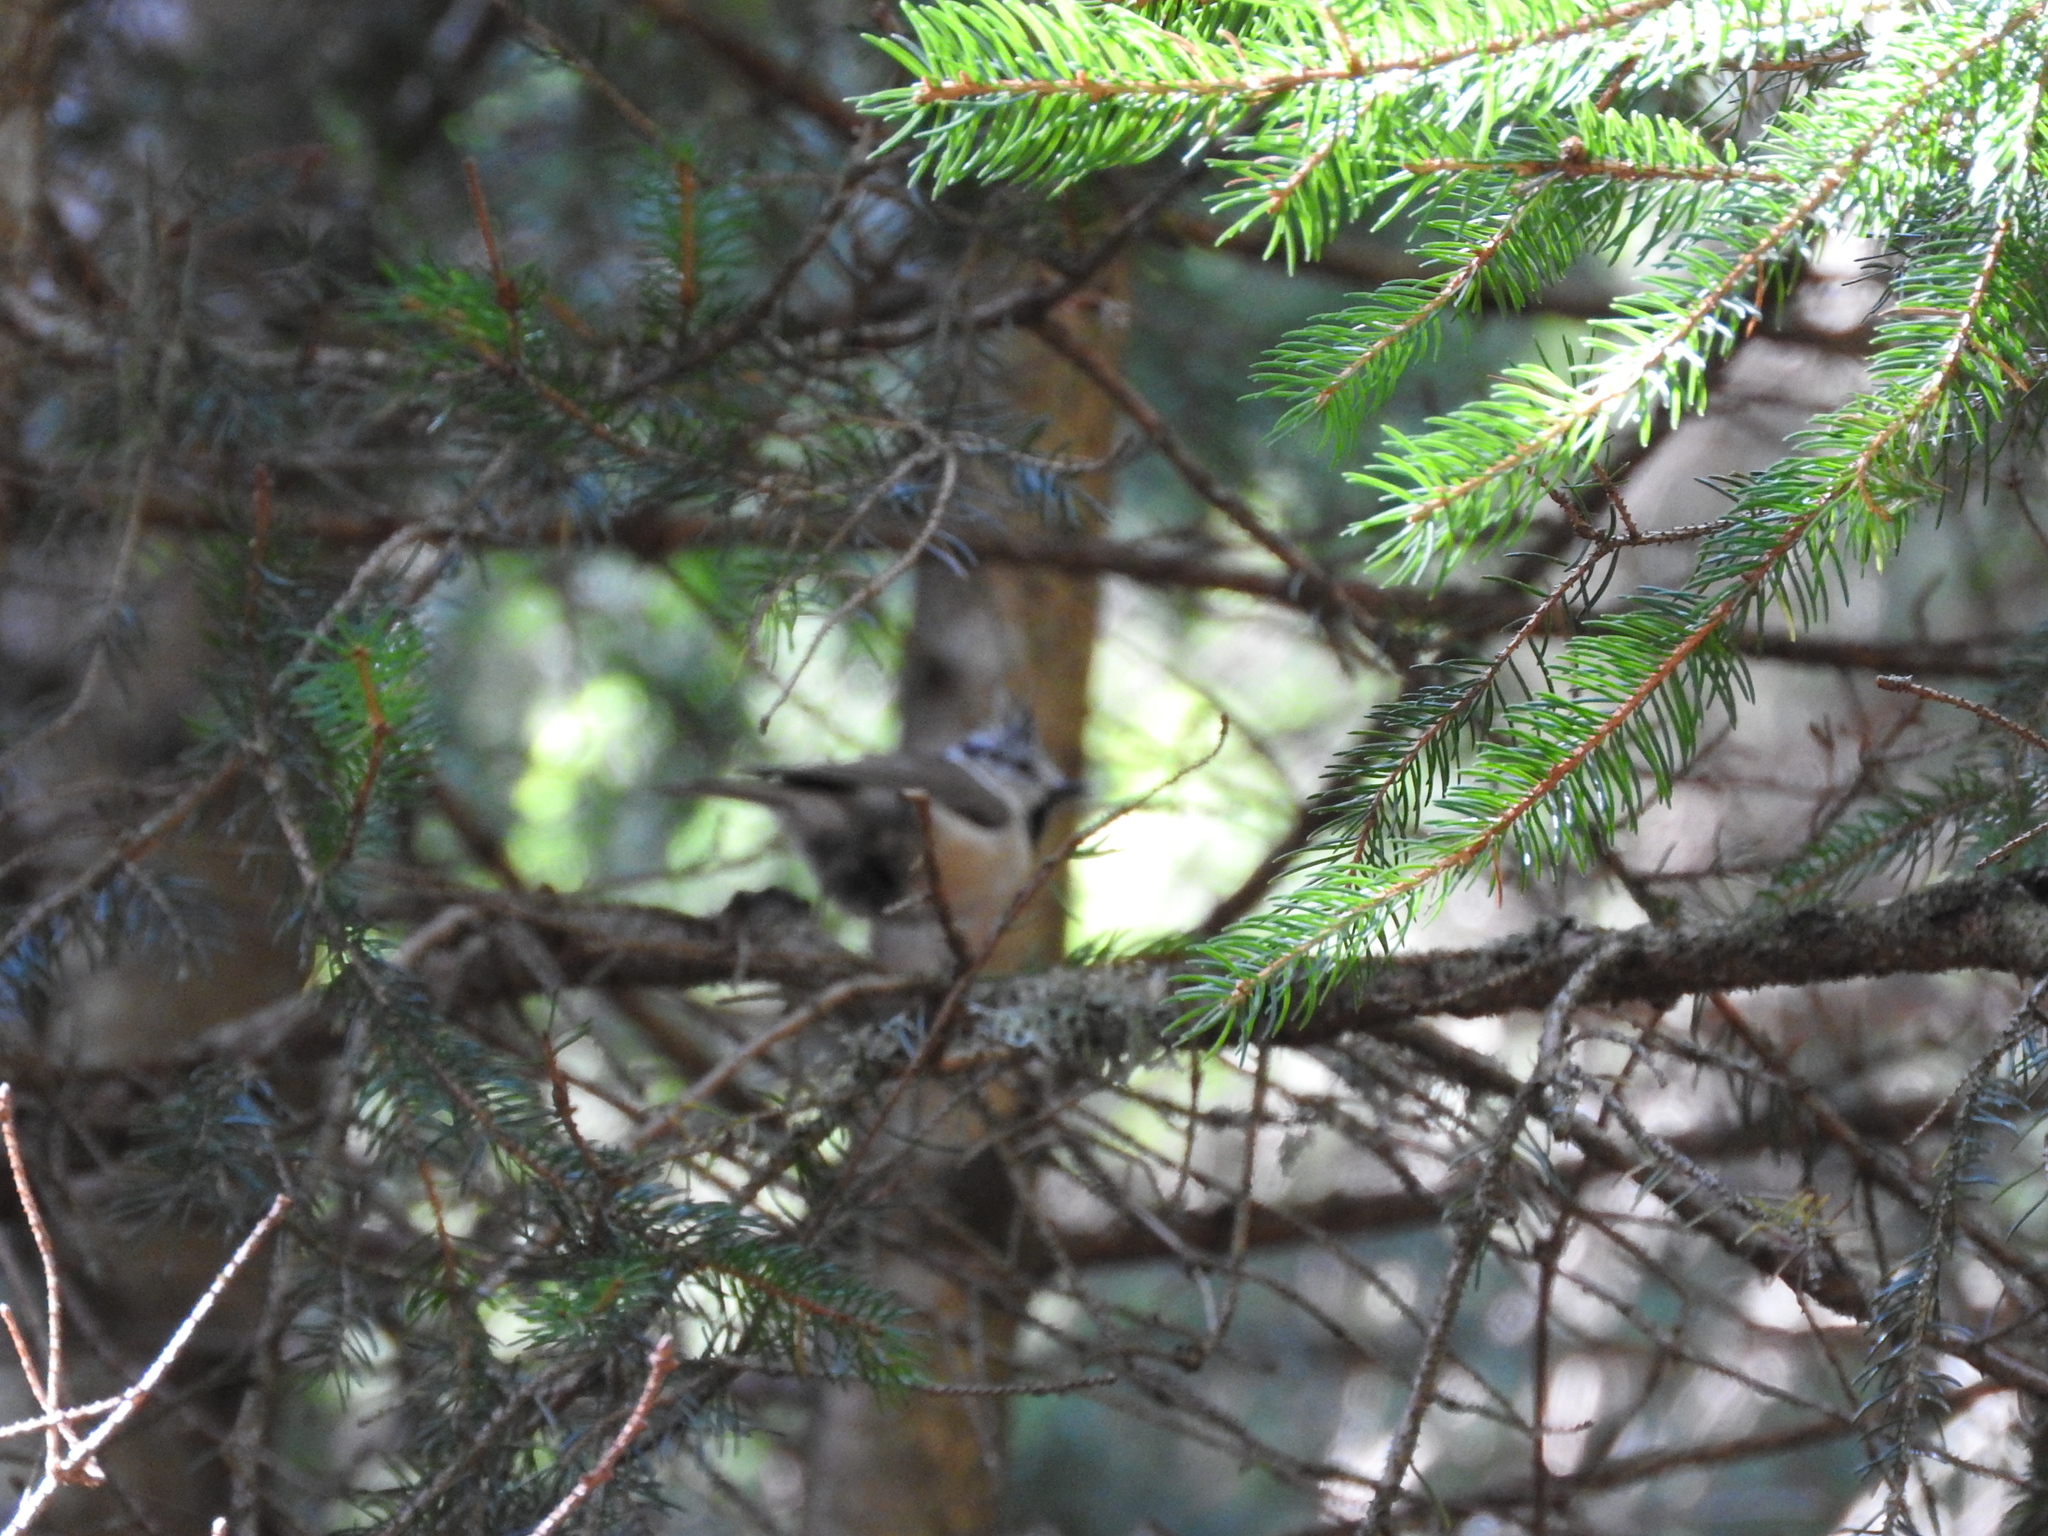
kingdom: Animalia
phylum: Chordata
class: Aves
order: Passeriformes
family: Paridae
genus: Lophophanes
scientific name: Lophophanes cristatus
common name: European crested tit
